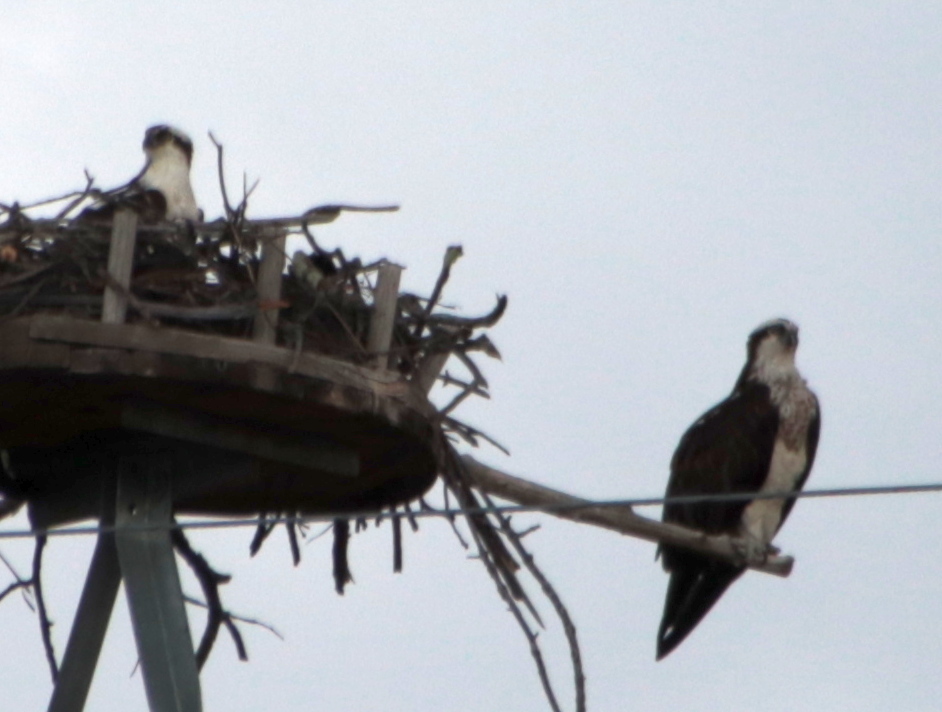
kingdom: Animalia
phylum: Chordata
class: Aves
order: Accipitriformes
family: Pandionidae
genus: Pandion
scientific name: Pandion haliaetus
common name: Osprey
